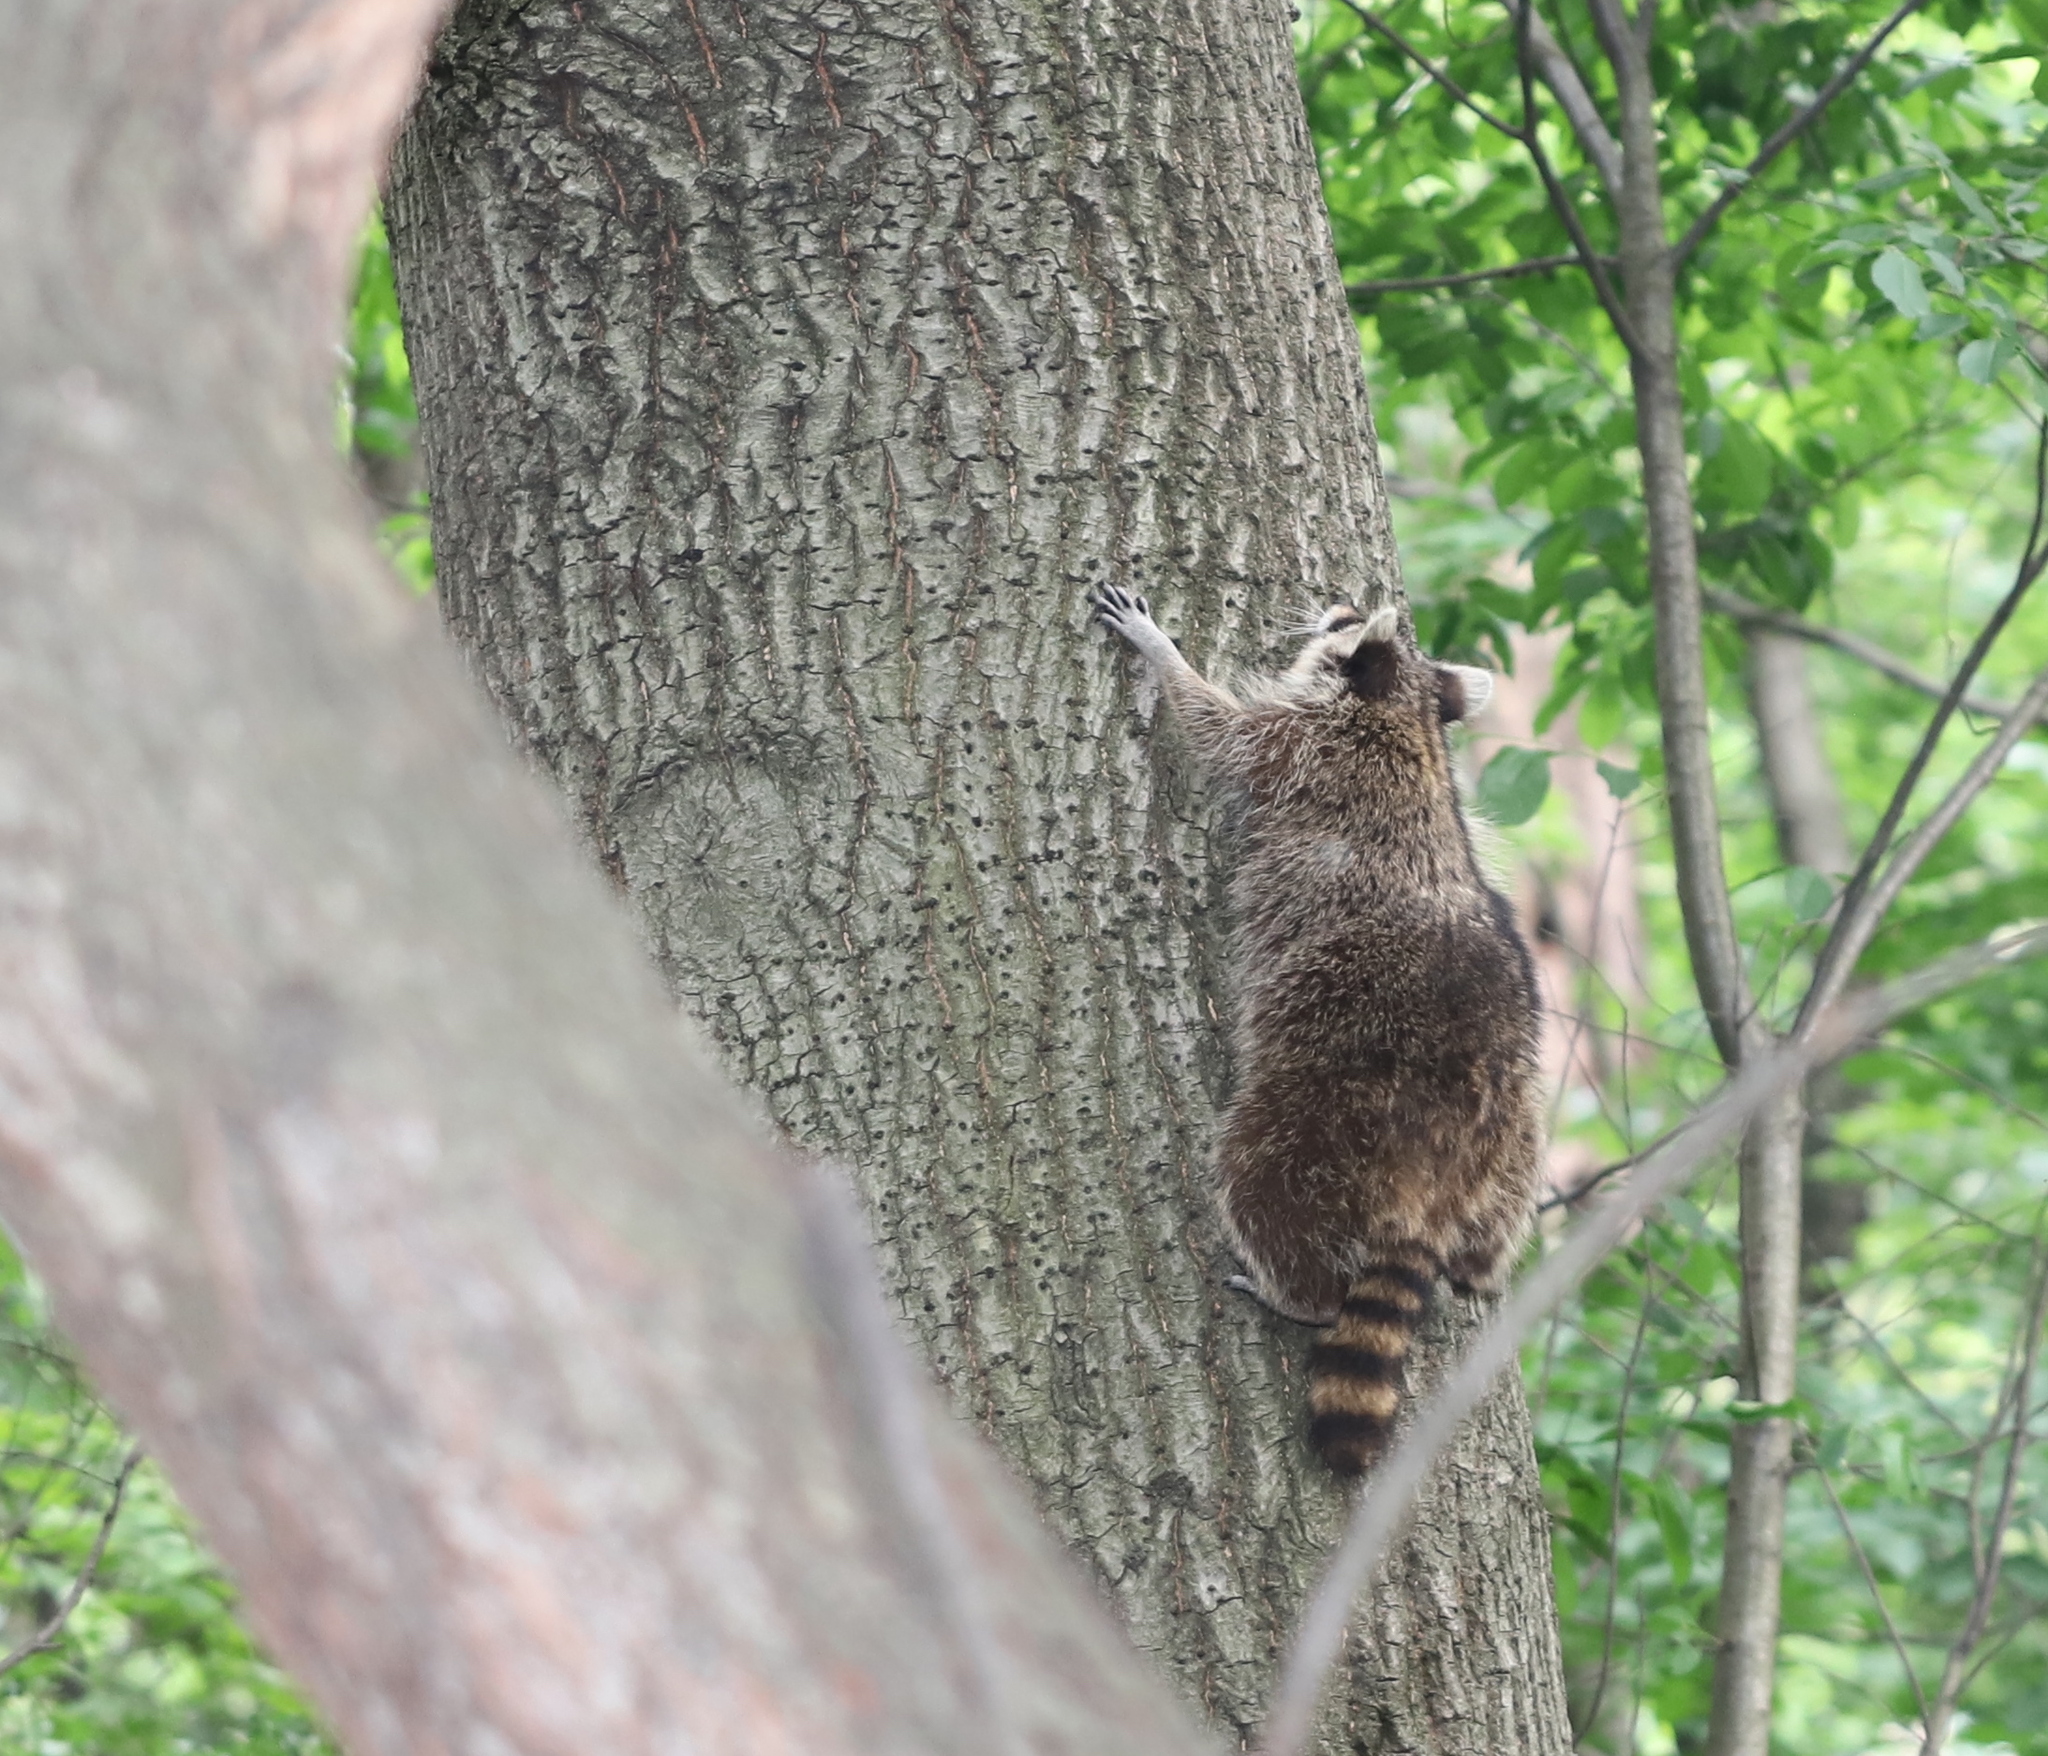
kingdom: Animalia
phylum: Chordata
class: Mammalia
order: Carnivora
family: Procyonidae
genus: Procyon
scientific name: Procyon lotor
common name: Raccoon
